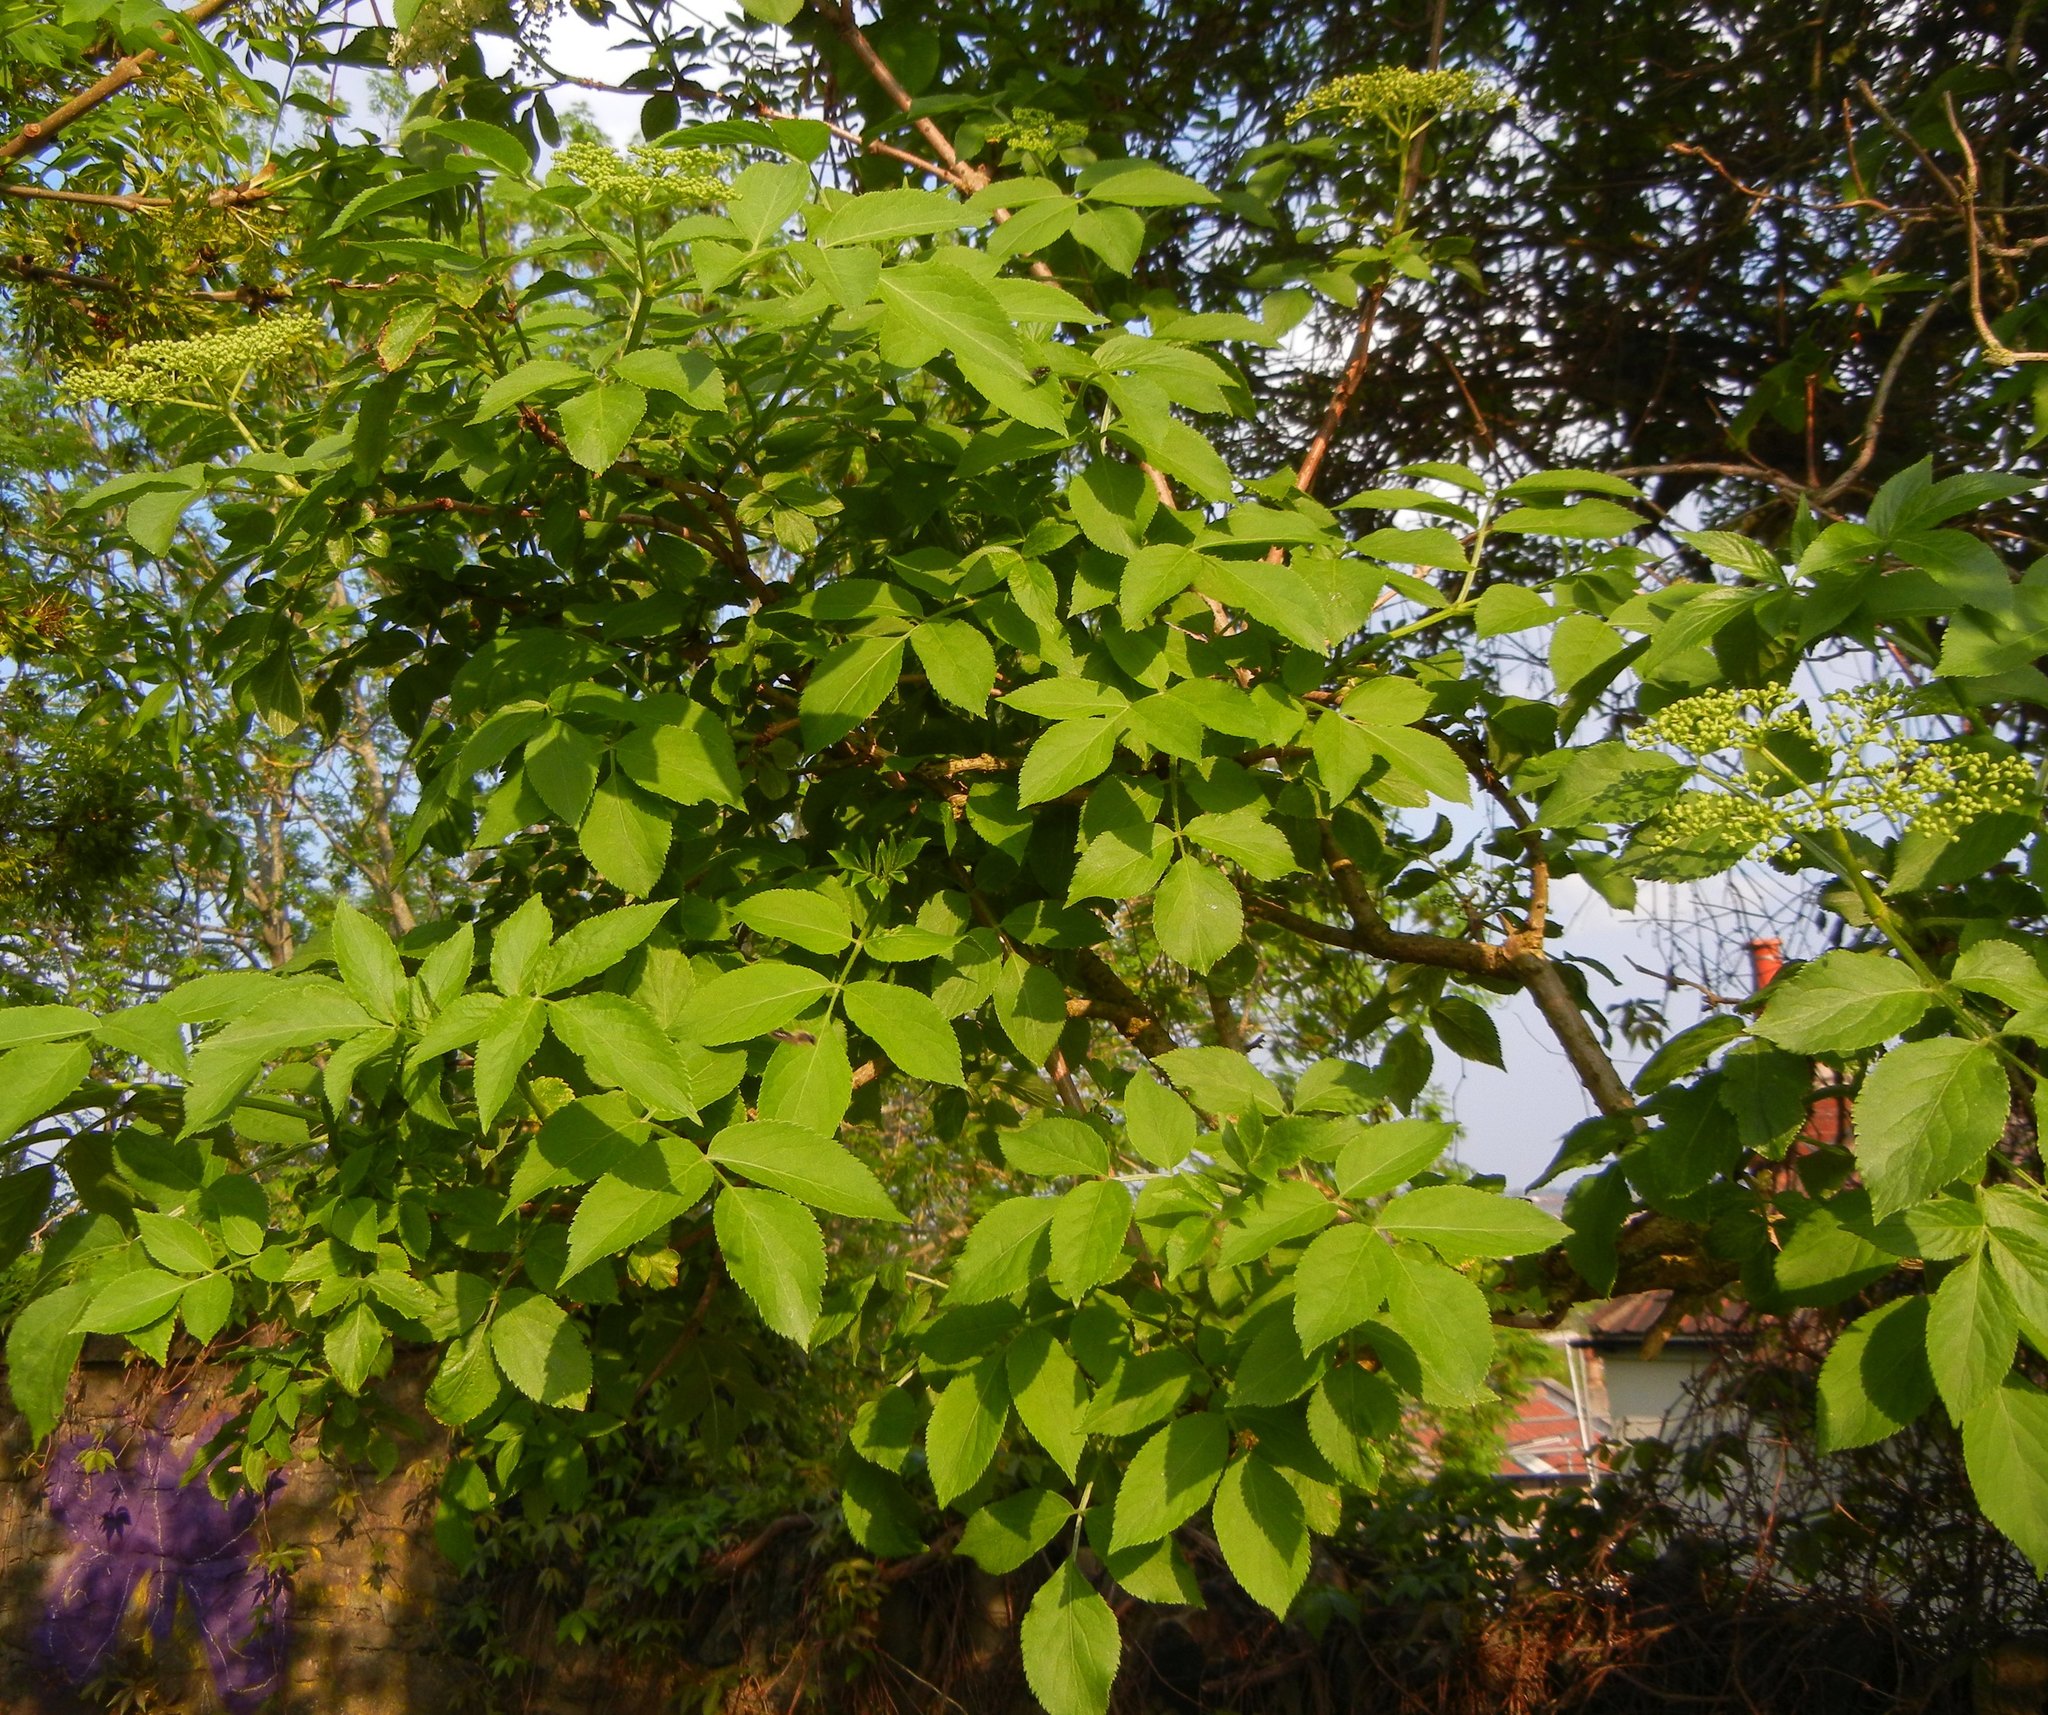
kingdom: Plantae
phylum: Tracheophyta
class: Magnoliopsida
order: Dipsacales
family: Viburnaceae
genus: Sambucus
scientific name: Sambucus nigra
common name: Elder
